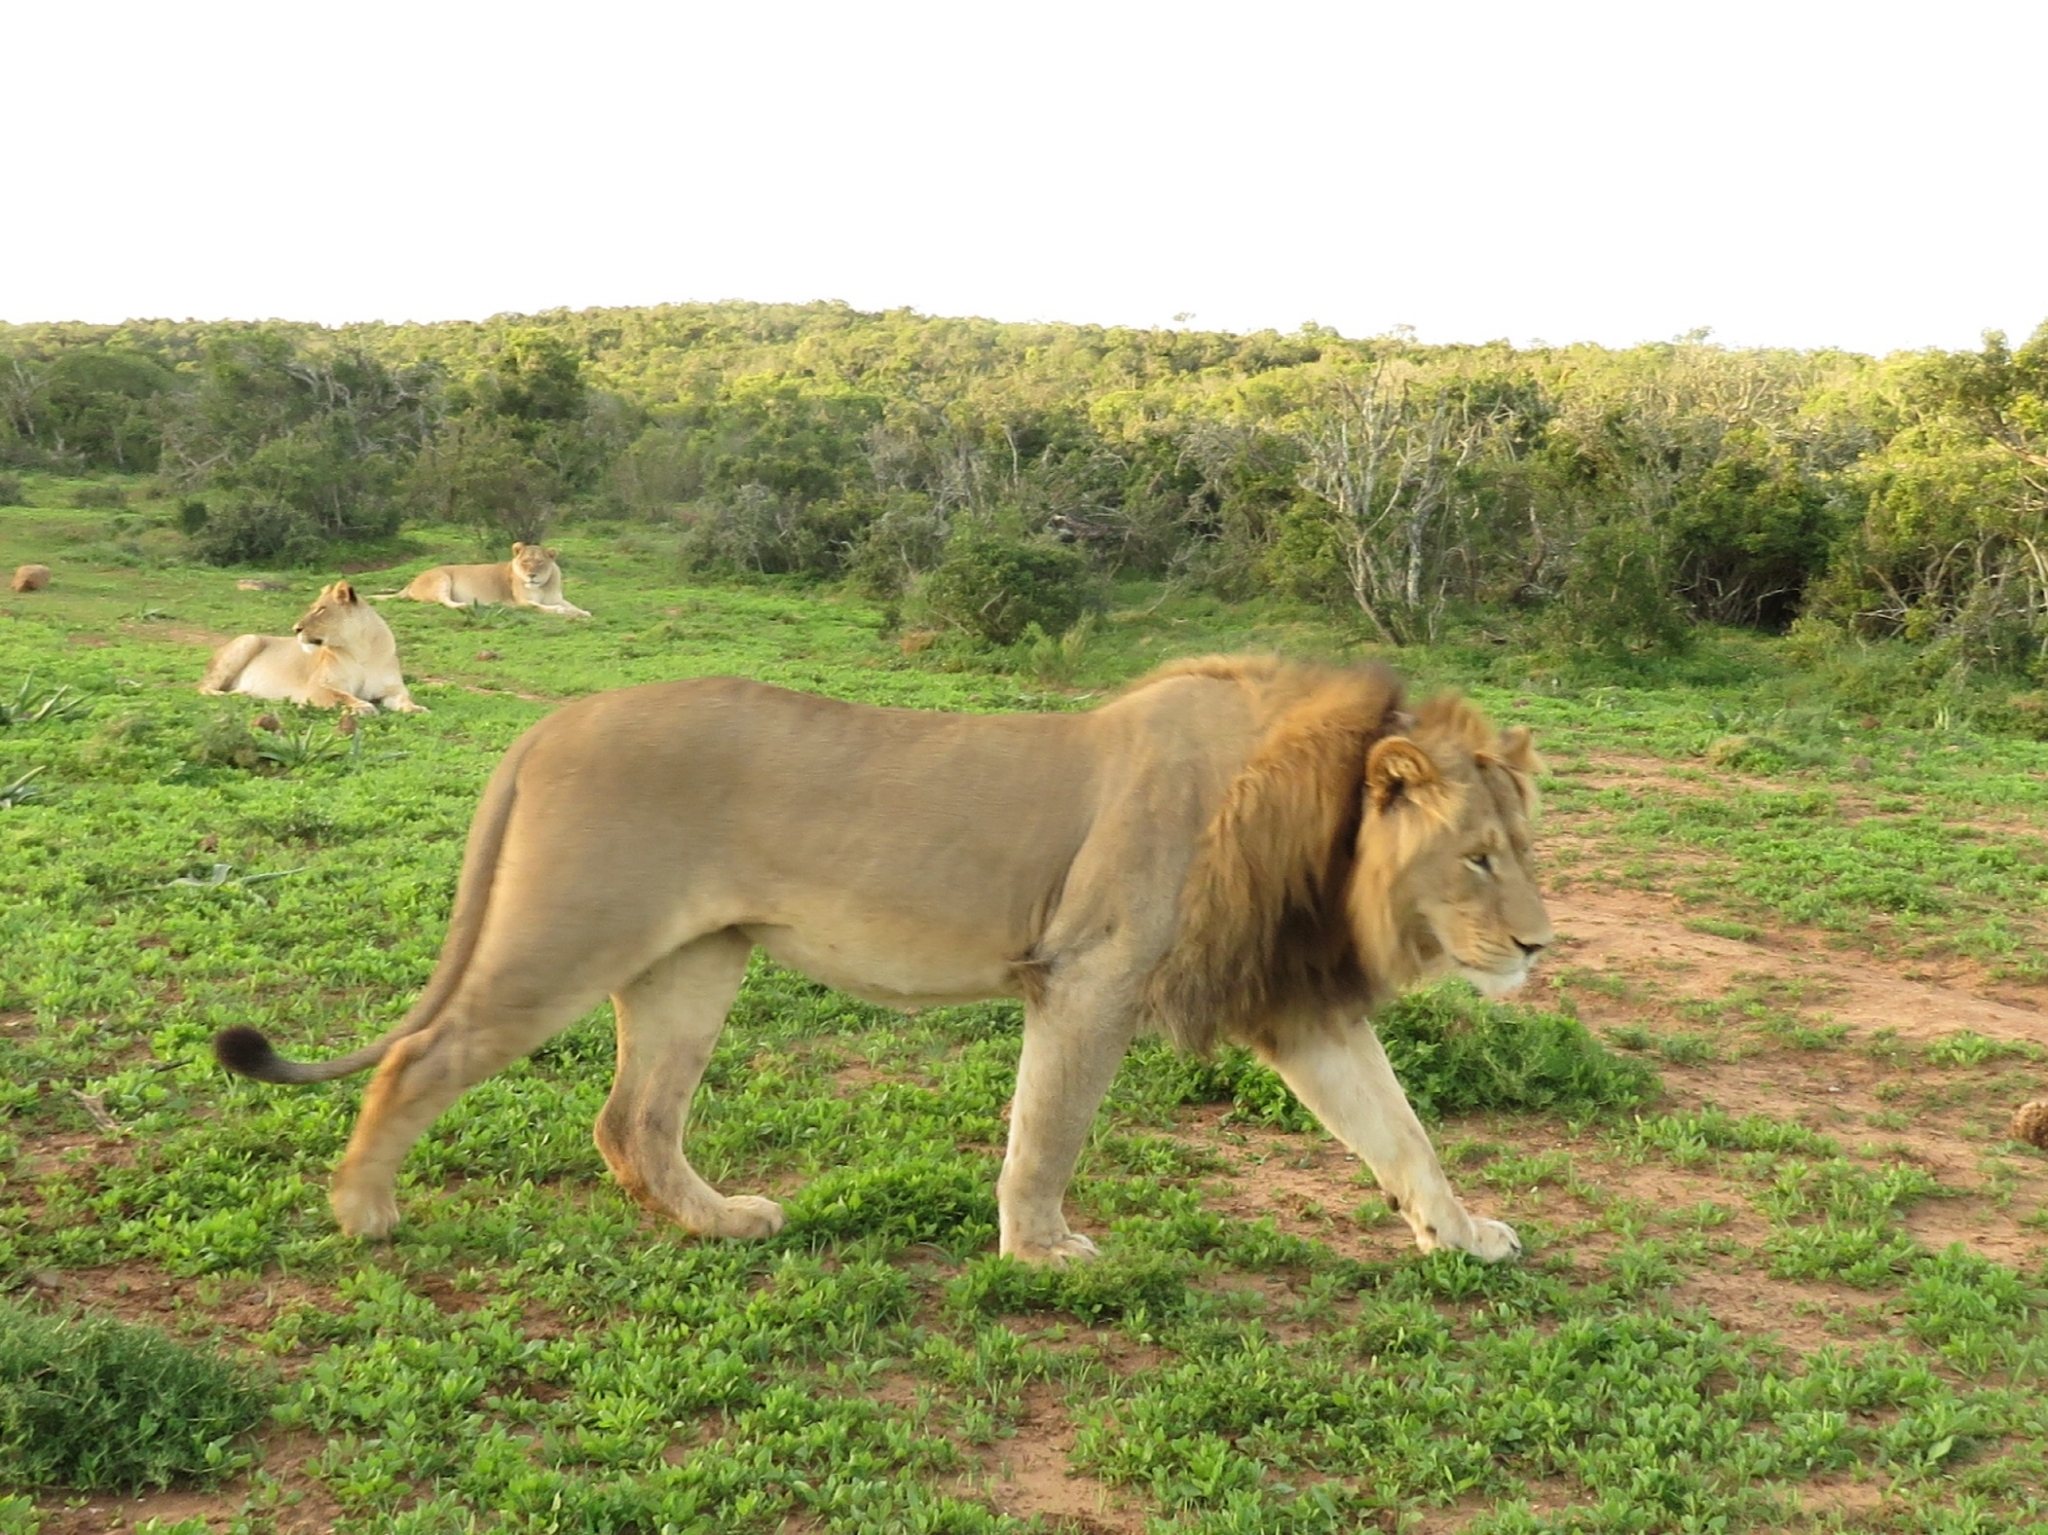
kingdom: Animalia
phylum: Chordata
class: Mammalia
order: Carnivora
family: Felidae
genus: Panthera
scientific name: Panthera leo
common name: Lion
